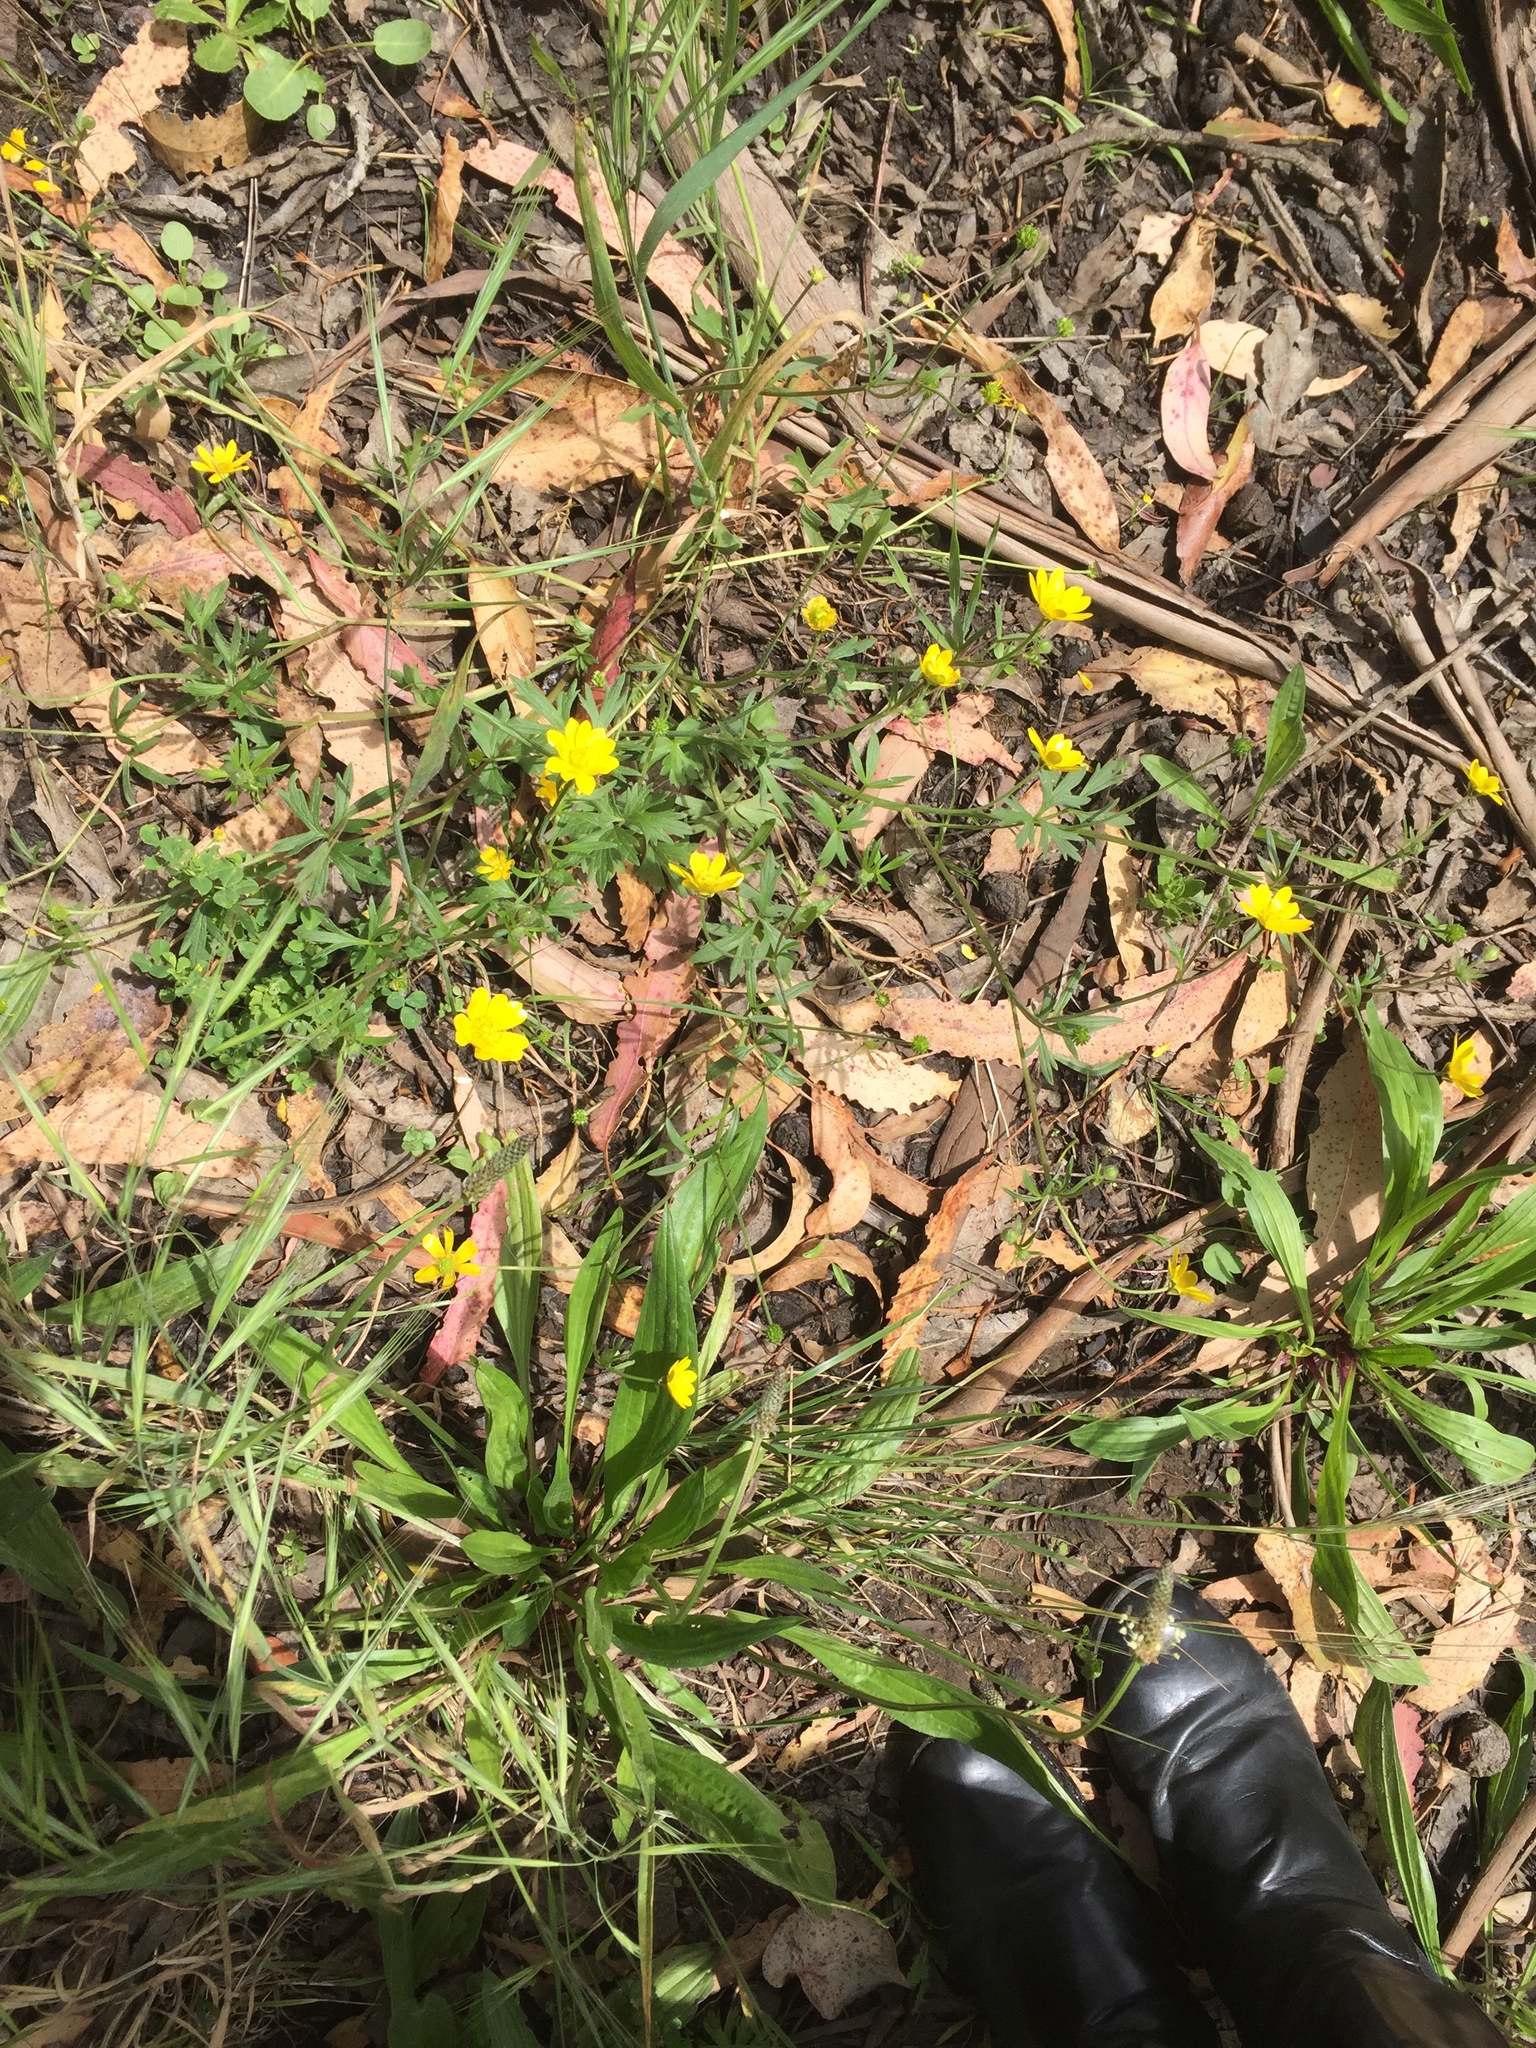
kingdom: Plantae
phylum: Tracheophyta
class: Magnoliopsida
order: Ranunculales
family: Ranunculaceae
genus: Ranunculus
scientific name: Ranunculus californicus
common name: California buttercup
